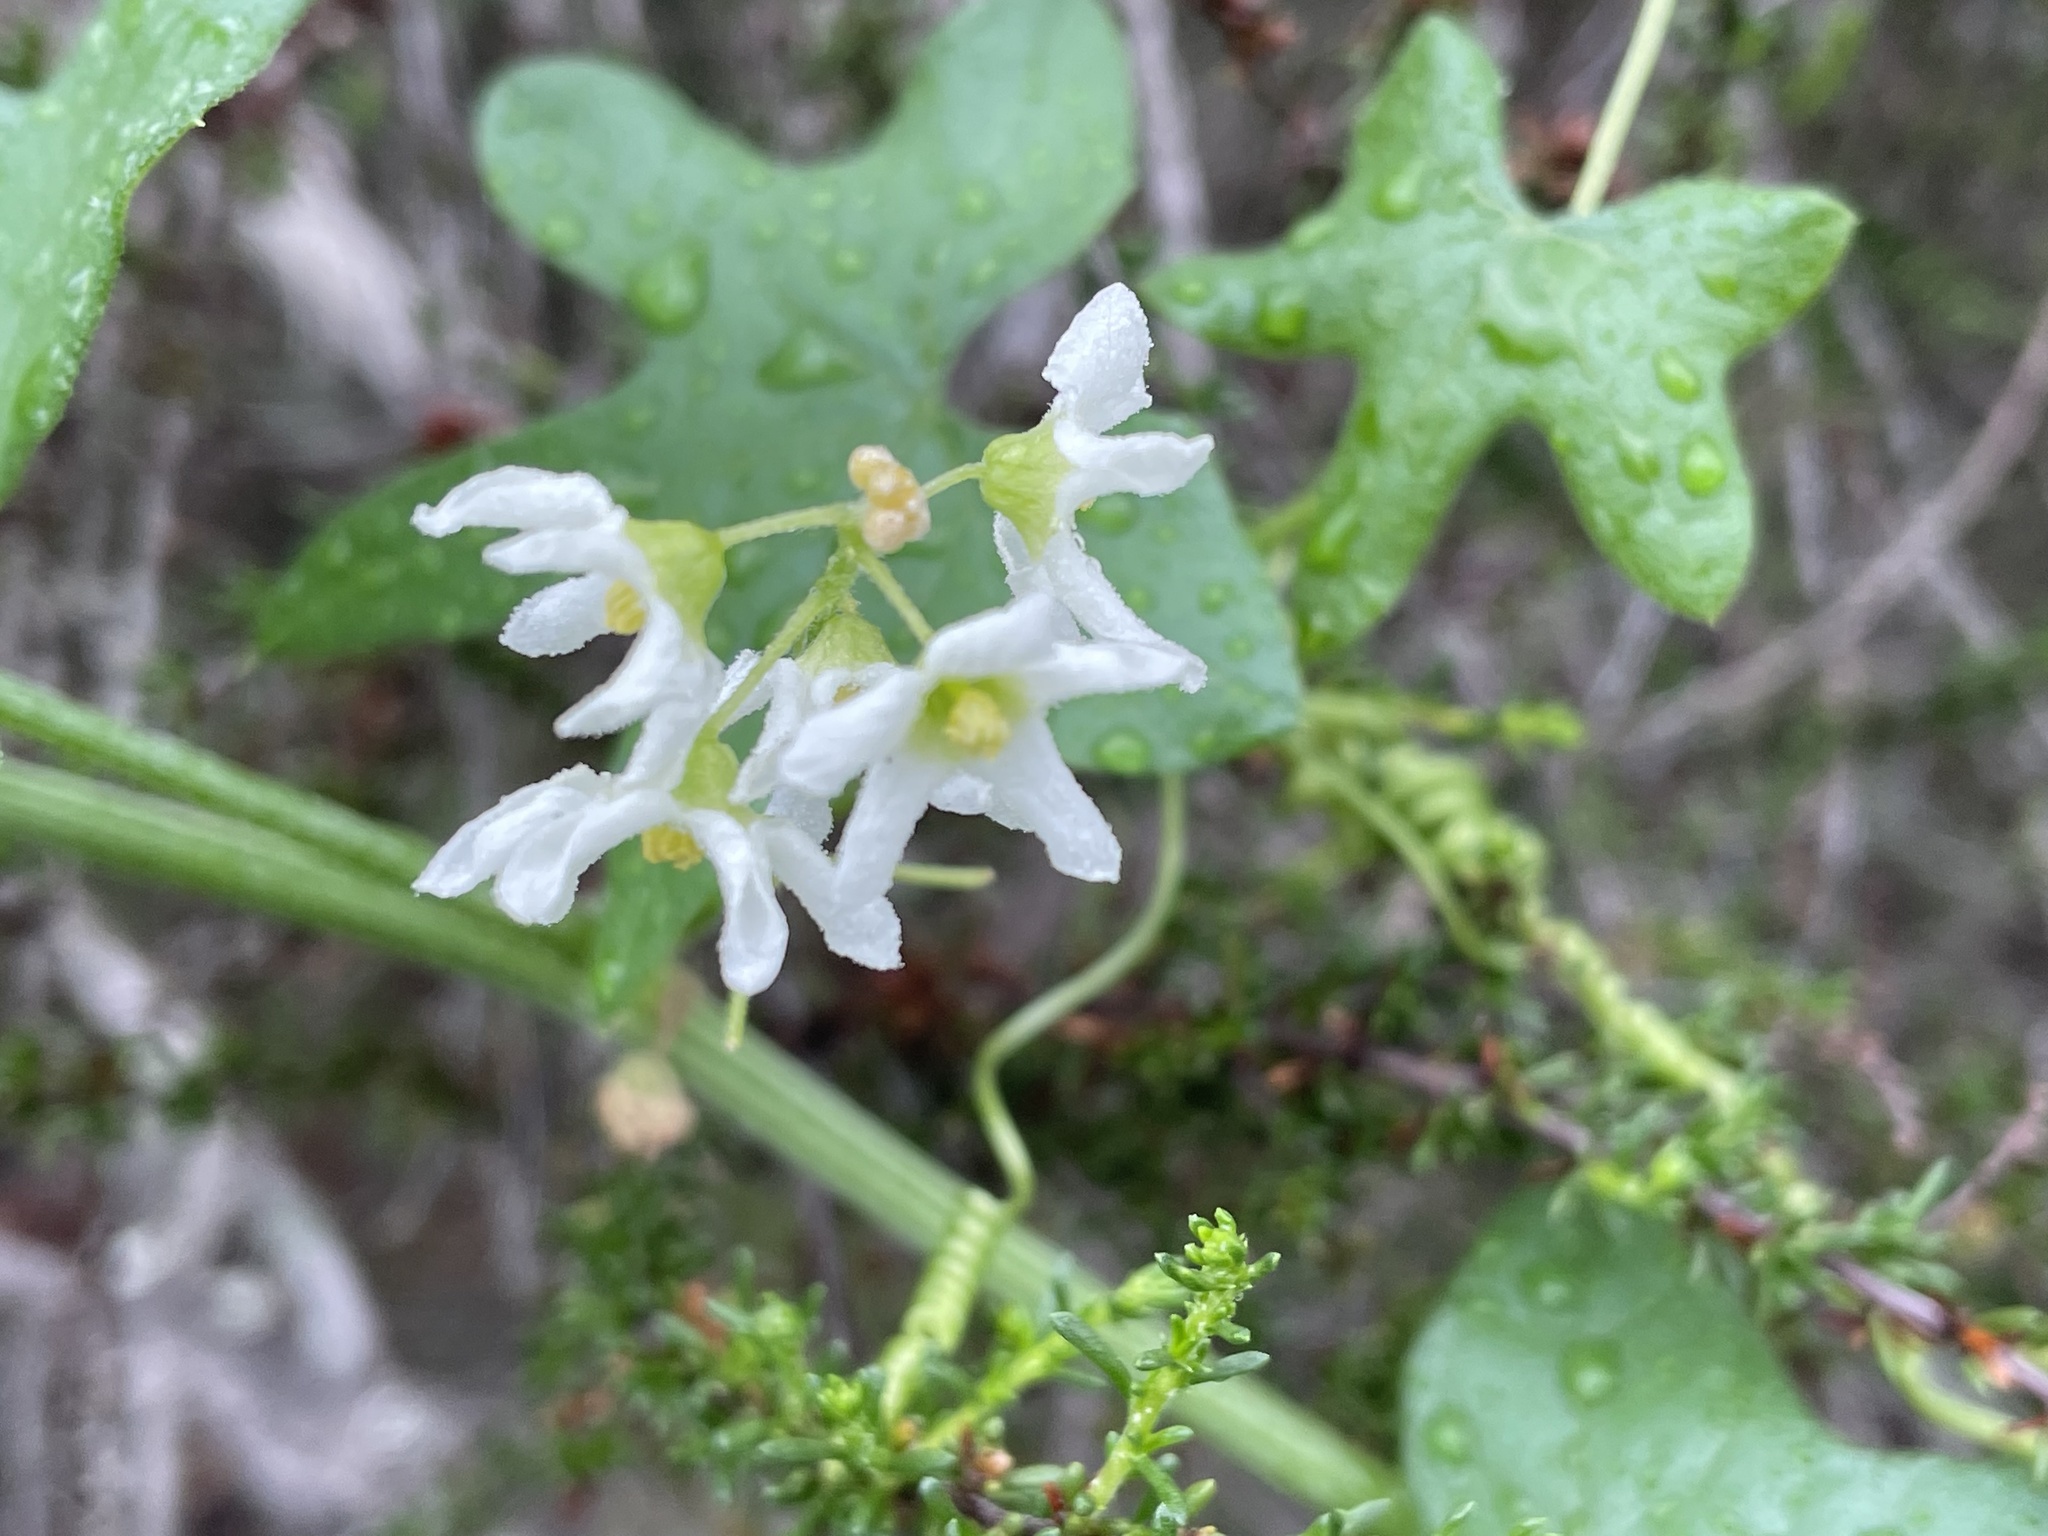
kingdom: Plantae
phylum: Tracheophyta
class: Magnoliopsida
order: Cucurbitales
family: Cucurbitaceae
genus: Marah
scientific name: Marah macrocarpa
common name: Cucamonga manroot
